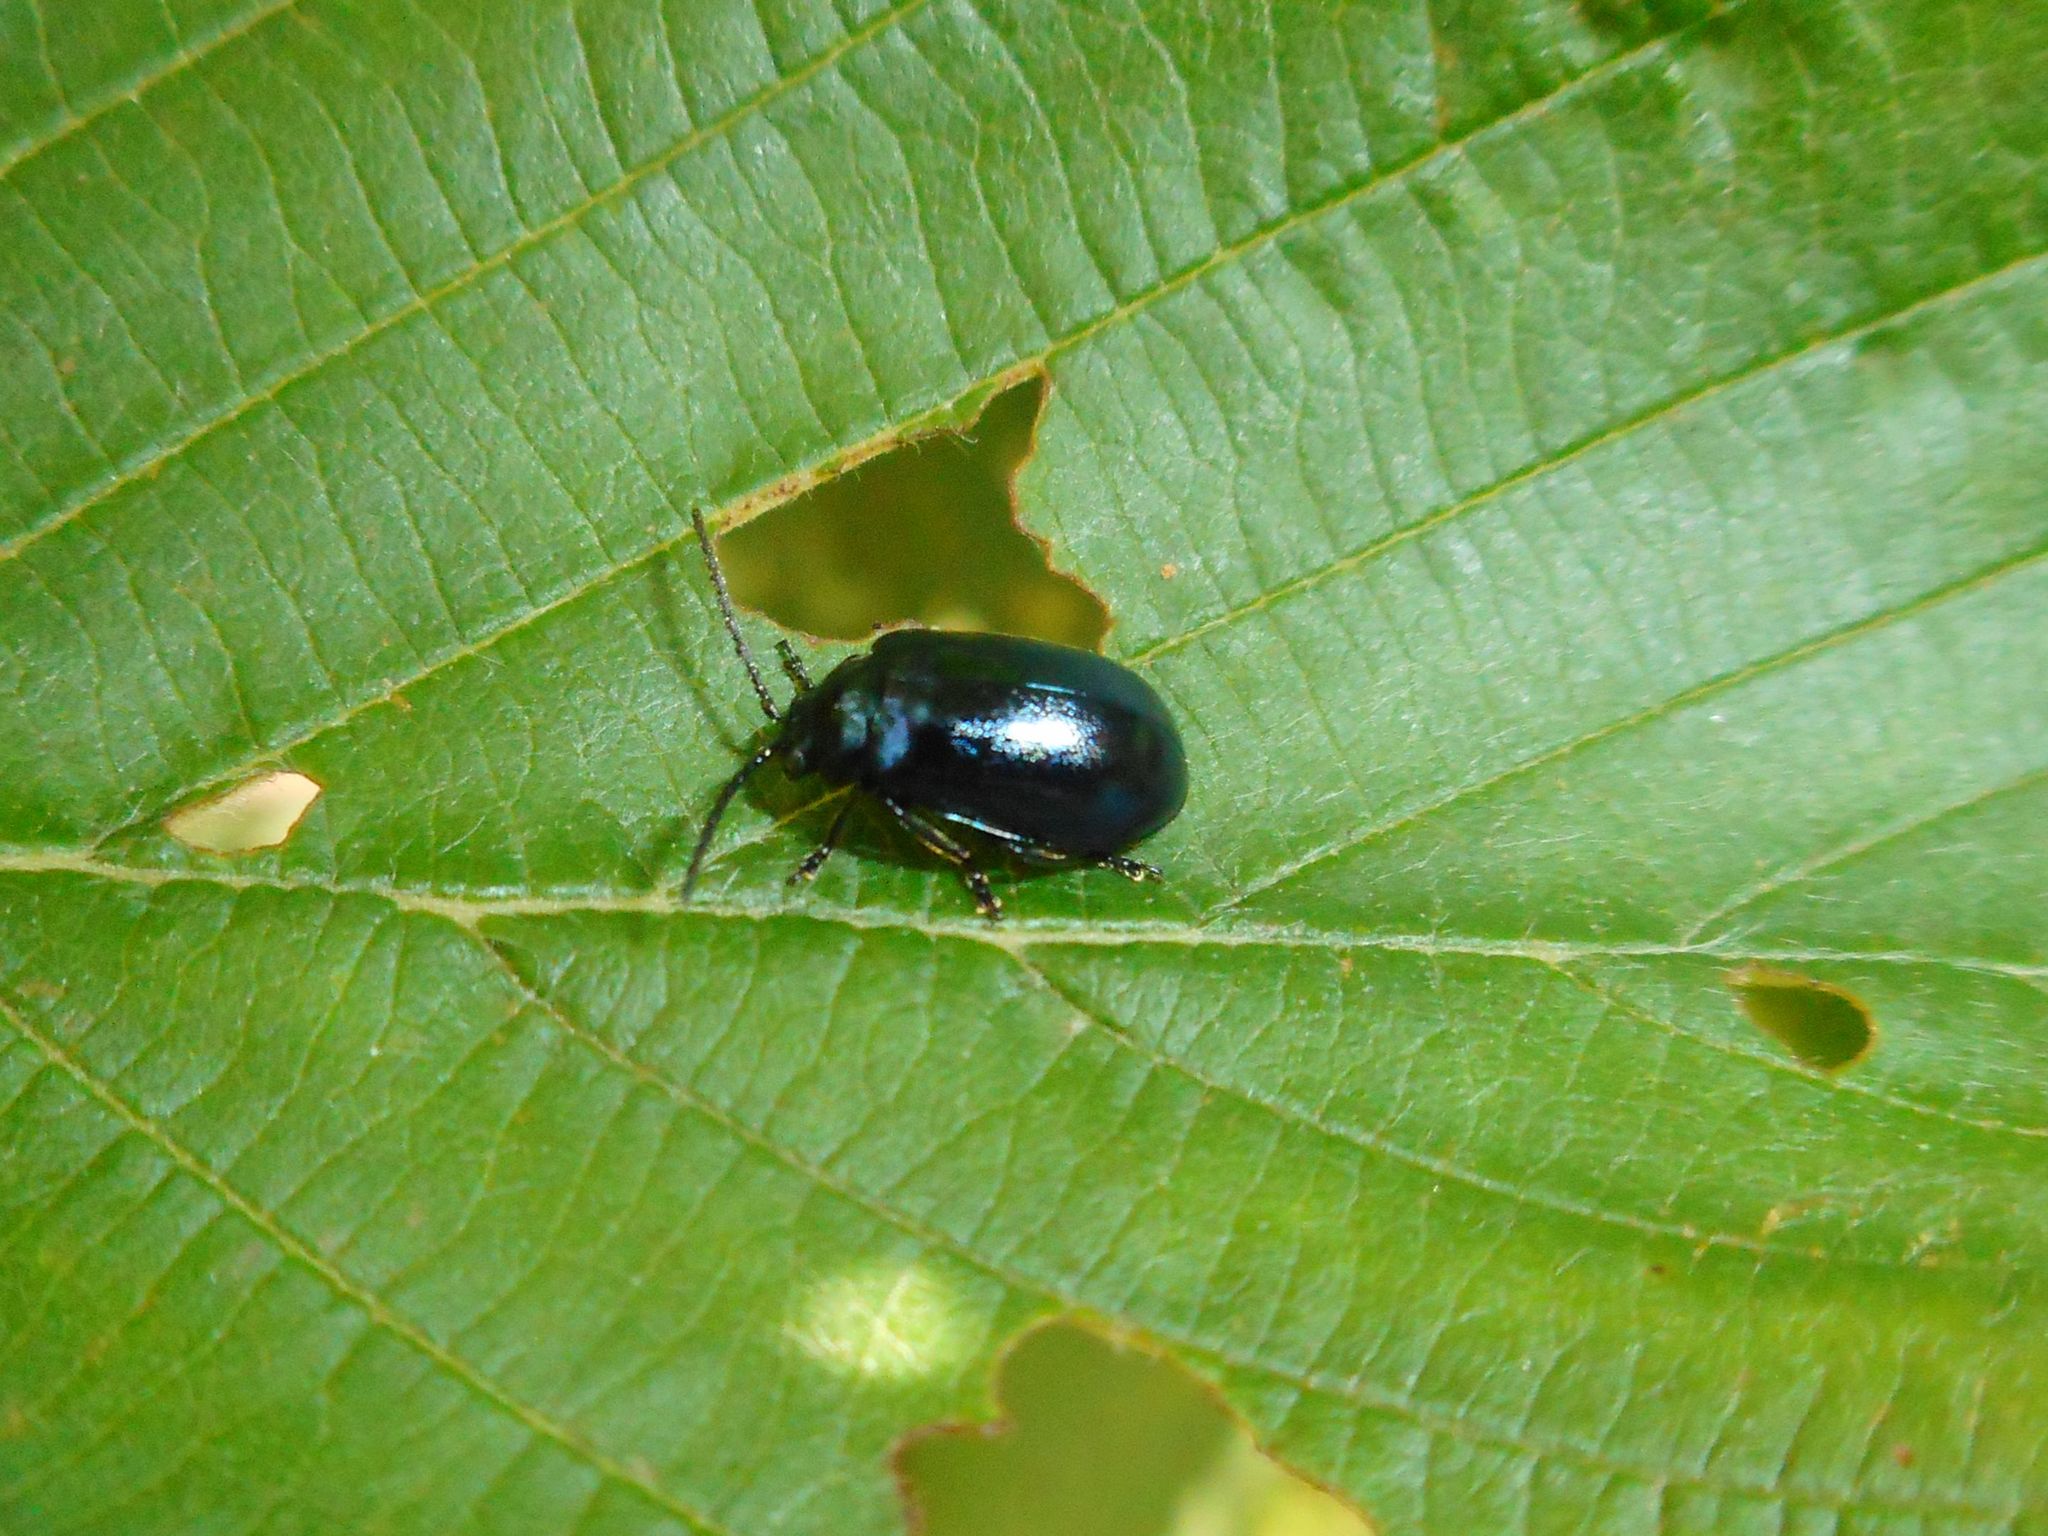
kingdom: Animalia
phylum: Arthropoda
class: Insecta
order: Coleoptera
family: Chrysomelidae
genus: Agelastica
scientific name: Agelastica alni
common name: Alder leaf beetle
